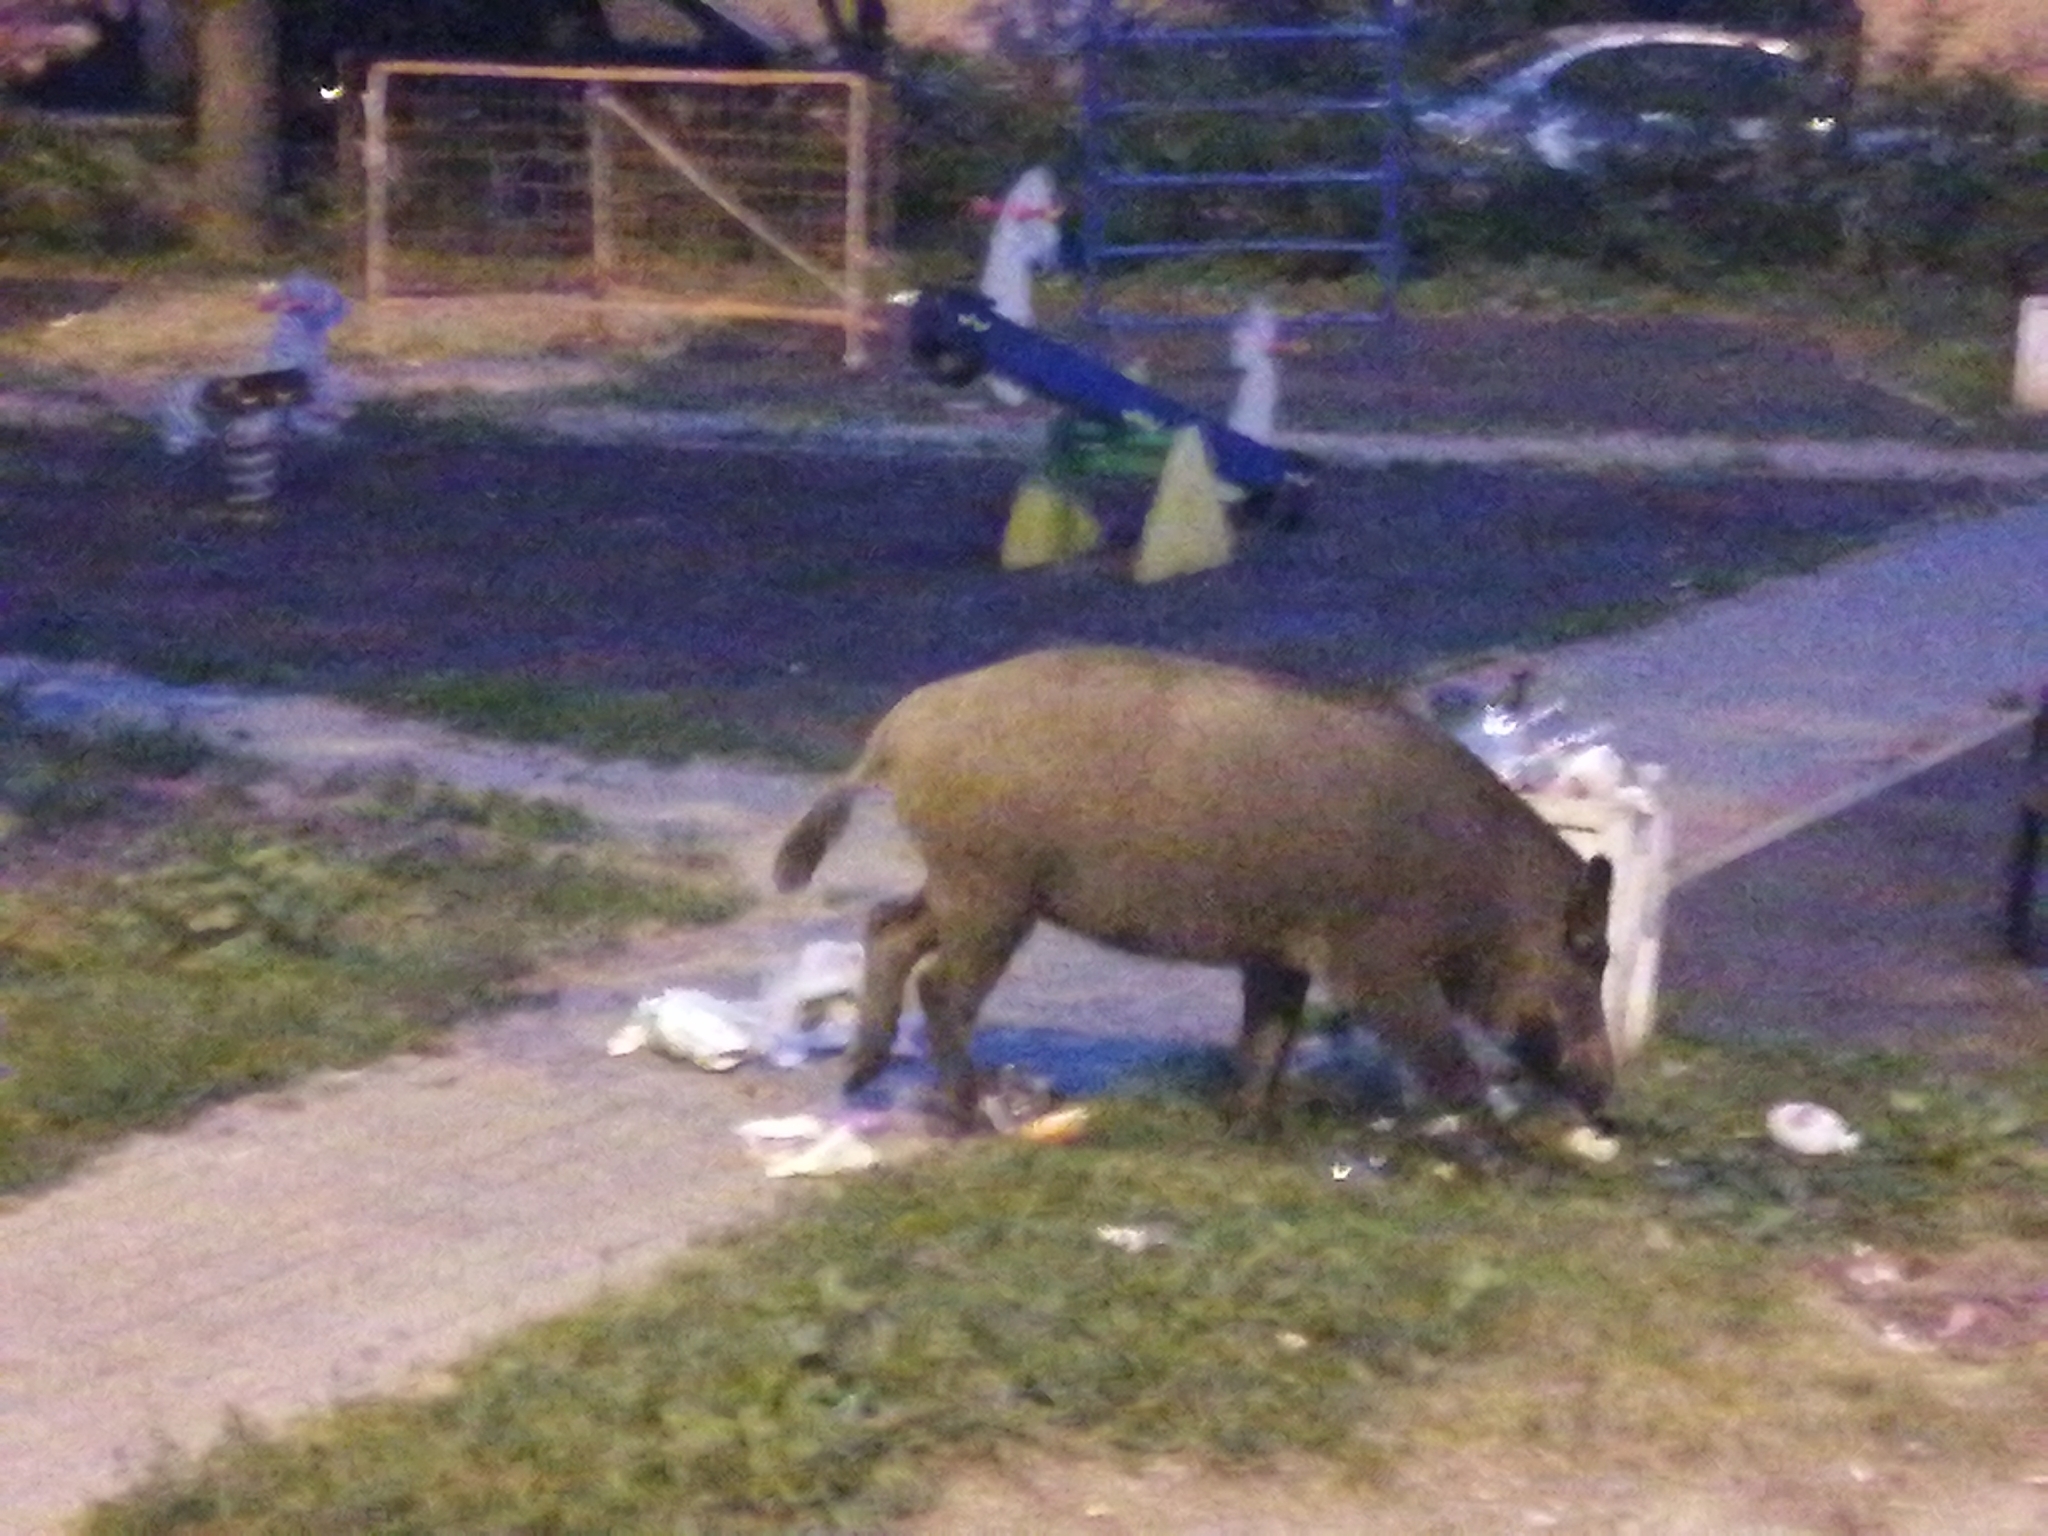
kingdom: Animalia
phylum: Chordata
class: Mammalia
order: Artiodactyla
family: Suidae
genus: Sus
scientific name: Sus scrofa
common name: Wild boar
